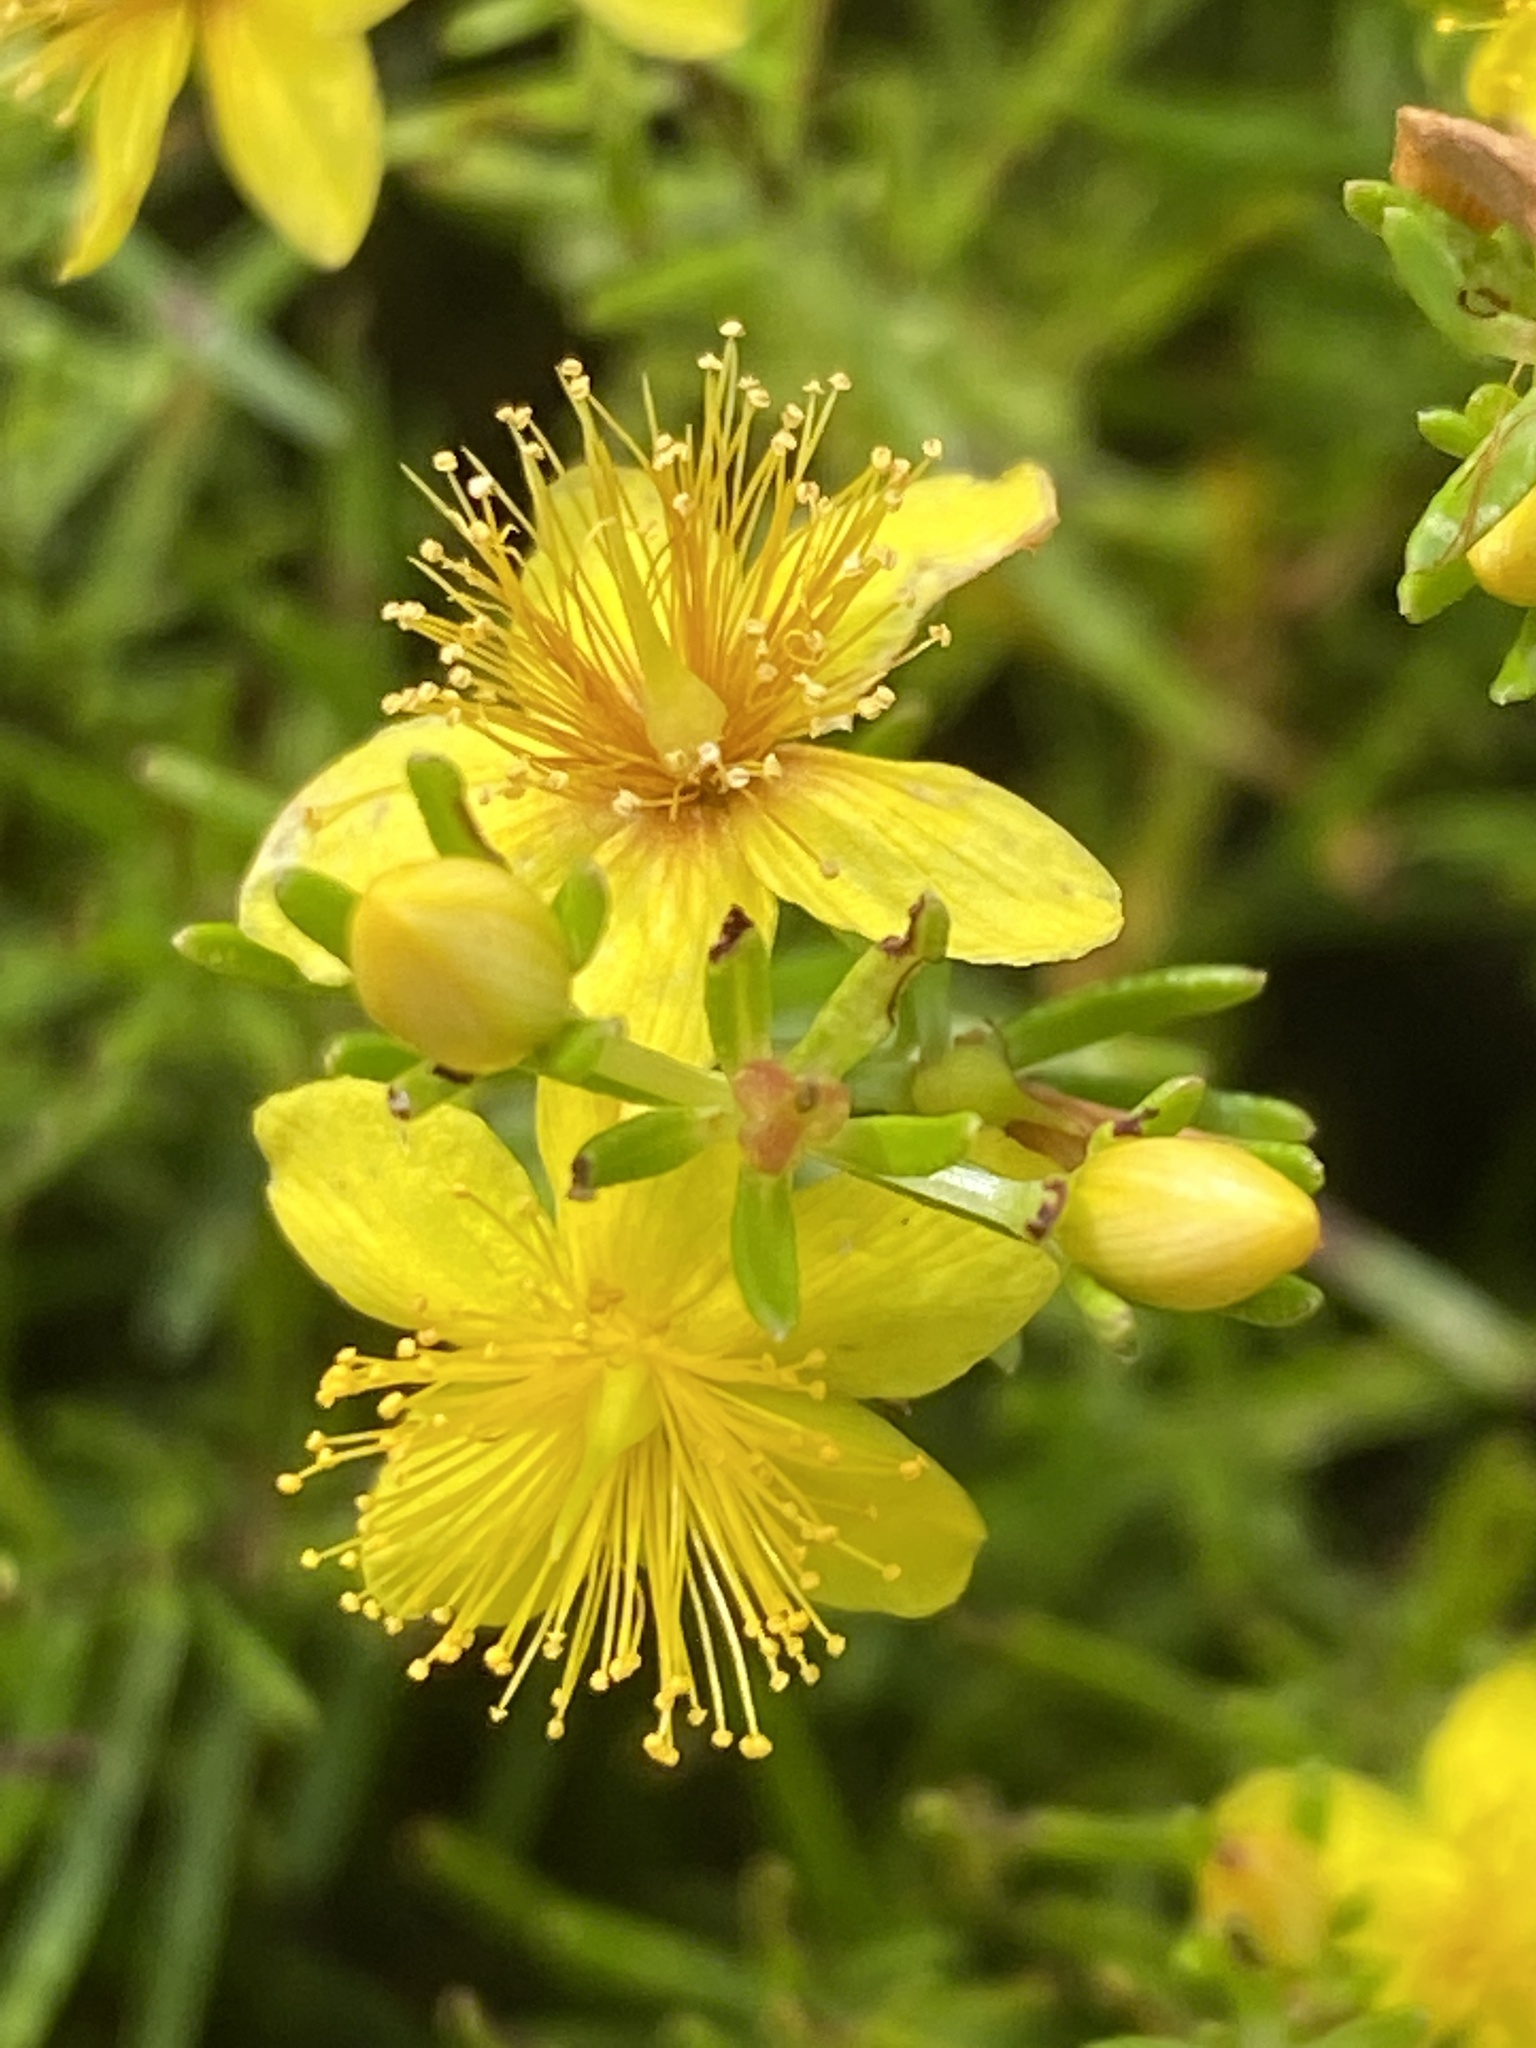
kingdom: Plantae
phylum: Tracheophyta
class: Magnoliopsida
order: Malpighiales
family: Hypericaceae
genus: Hypericum
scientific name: Hypericum lloydii
